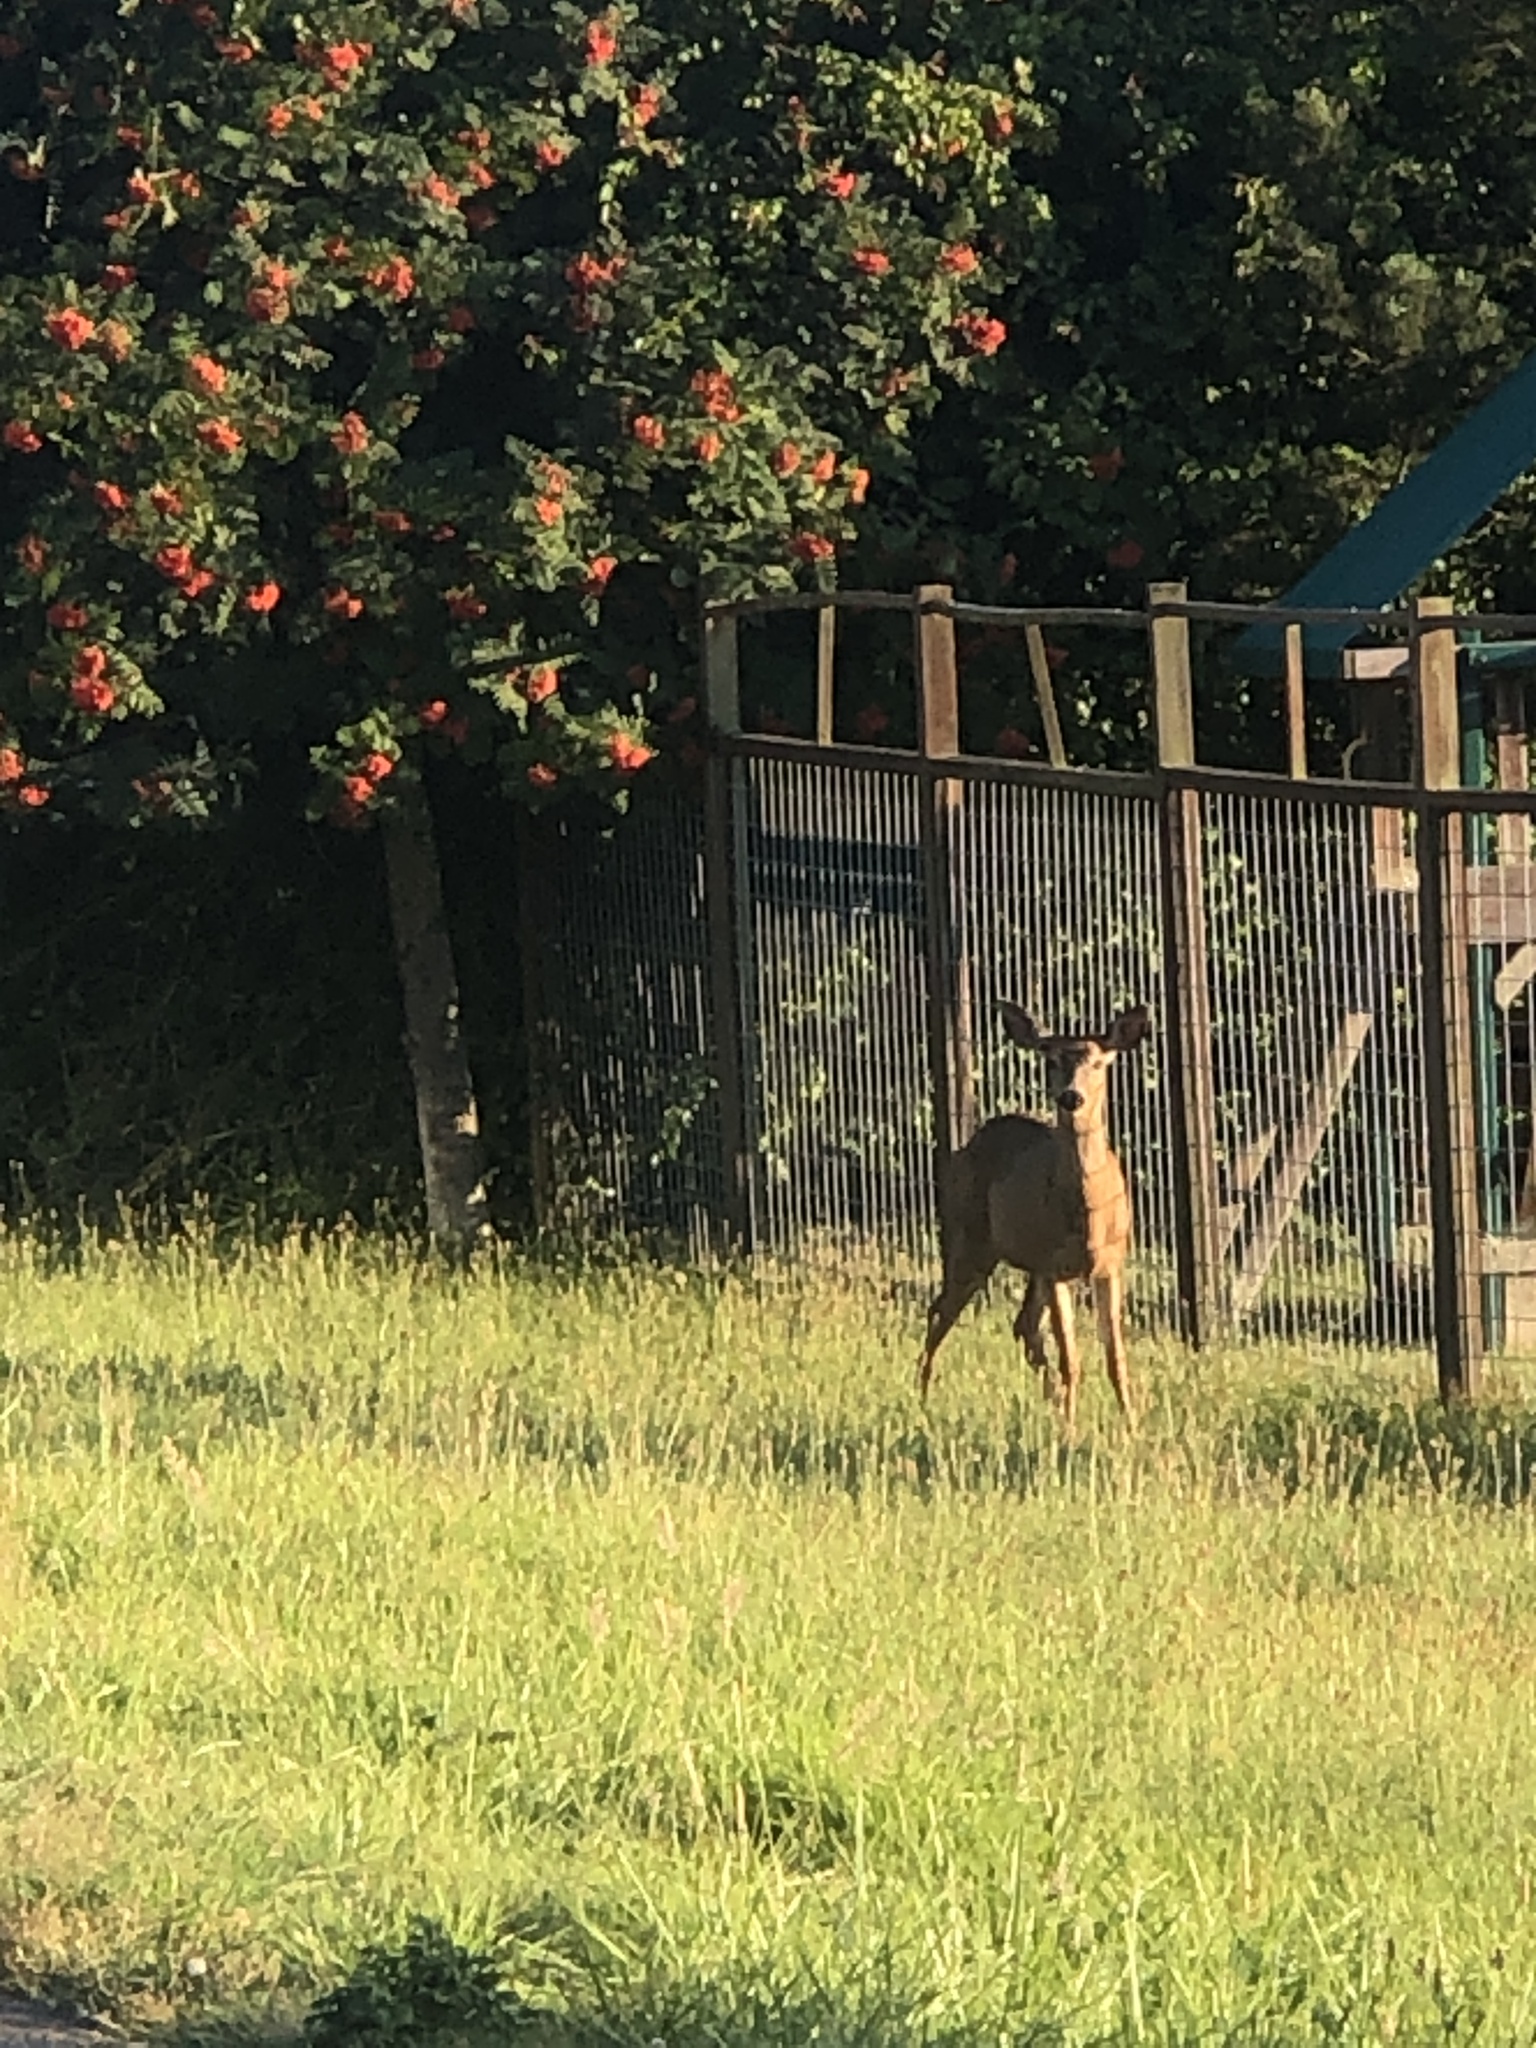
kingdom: Animalia
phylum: Chordata
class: Mammalia
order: Artiodactyla
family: Cervidae
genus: Odocoileus
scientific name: Odocoileus hemionus
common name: Mule deer
